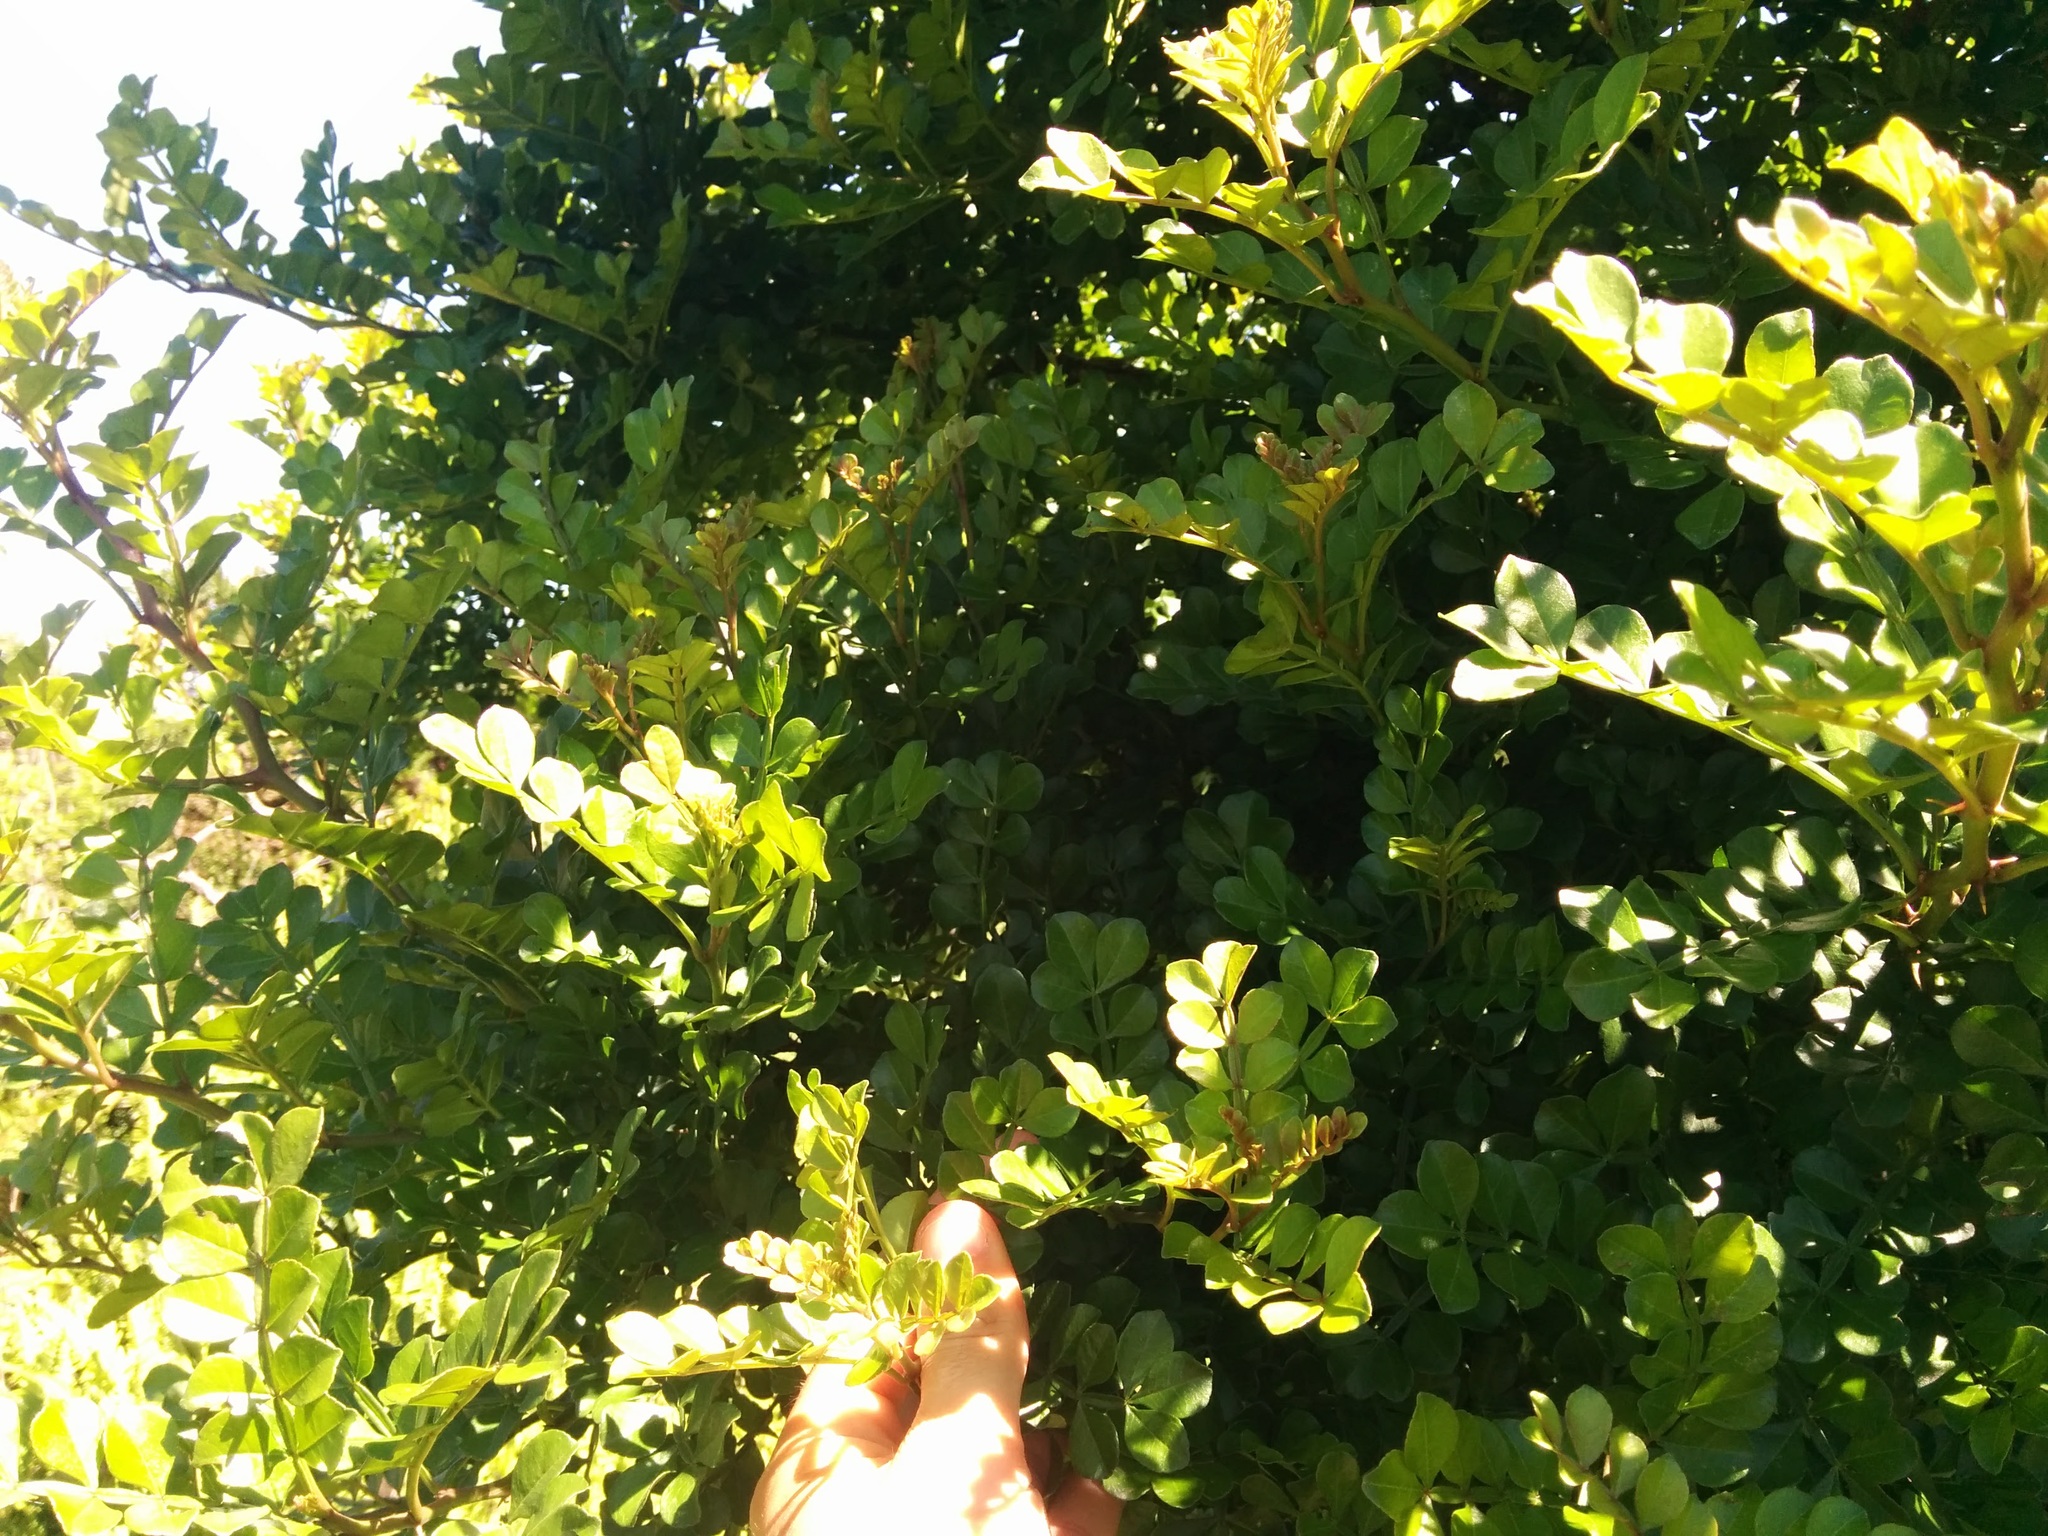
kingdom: Plantae
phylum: Tracheophyta
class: Magnoliopsida
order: Sapindales
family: Rutaceae
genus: Zanthoxylum
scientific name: Zanthoxylum fagara
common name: Lime prickly-ash
